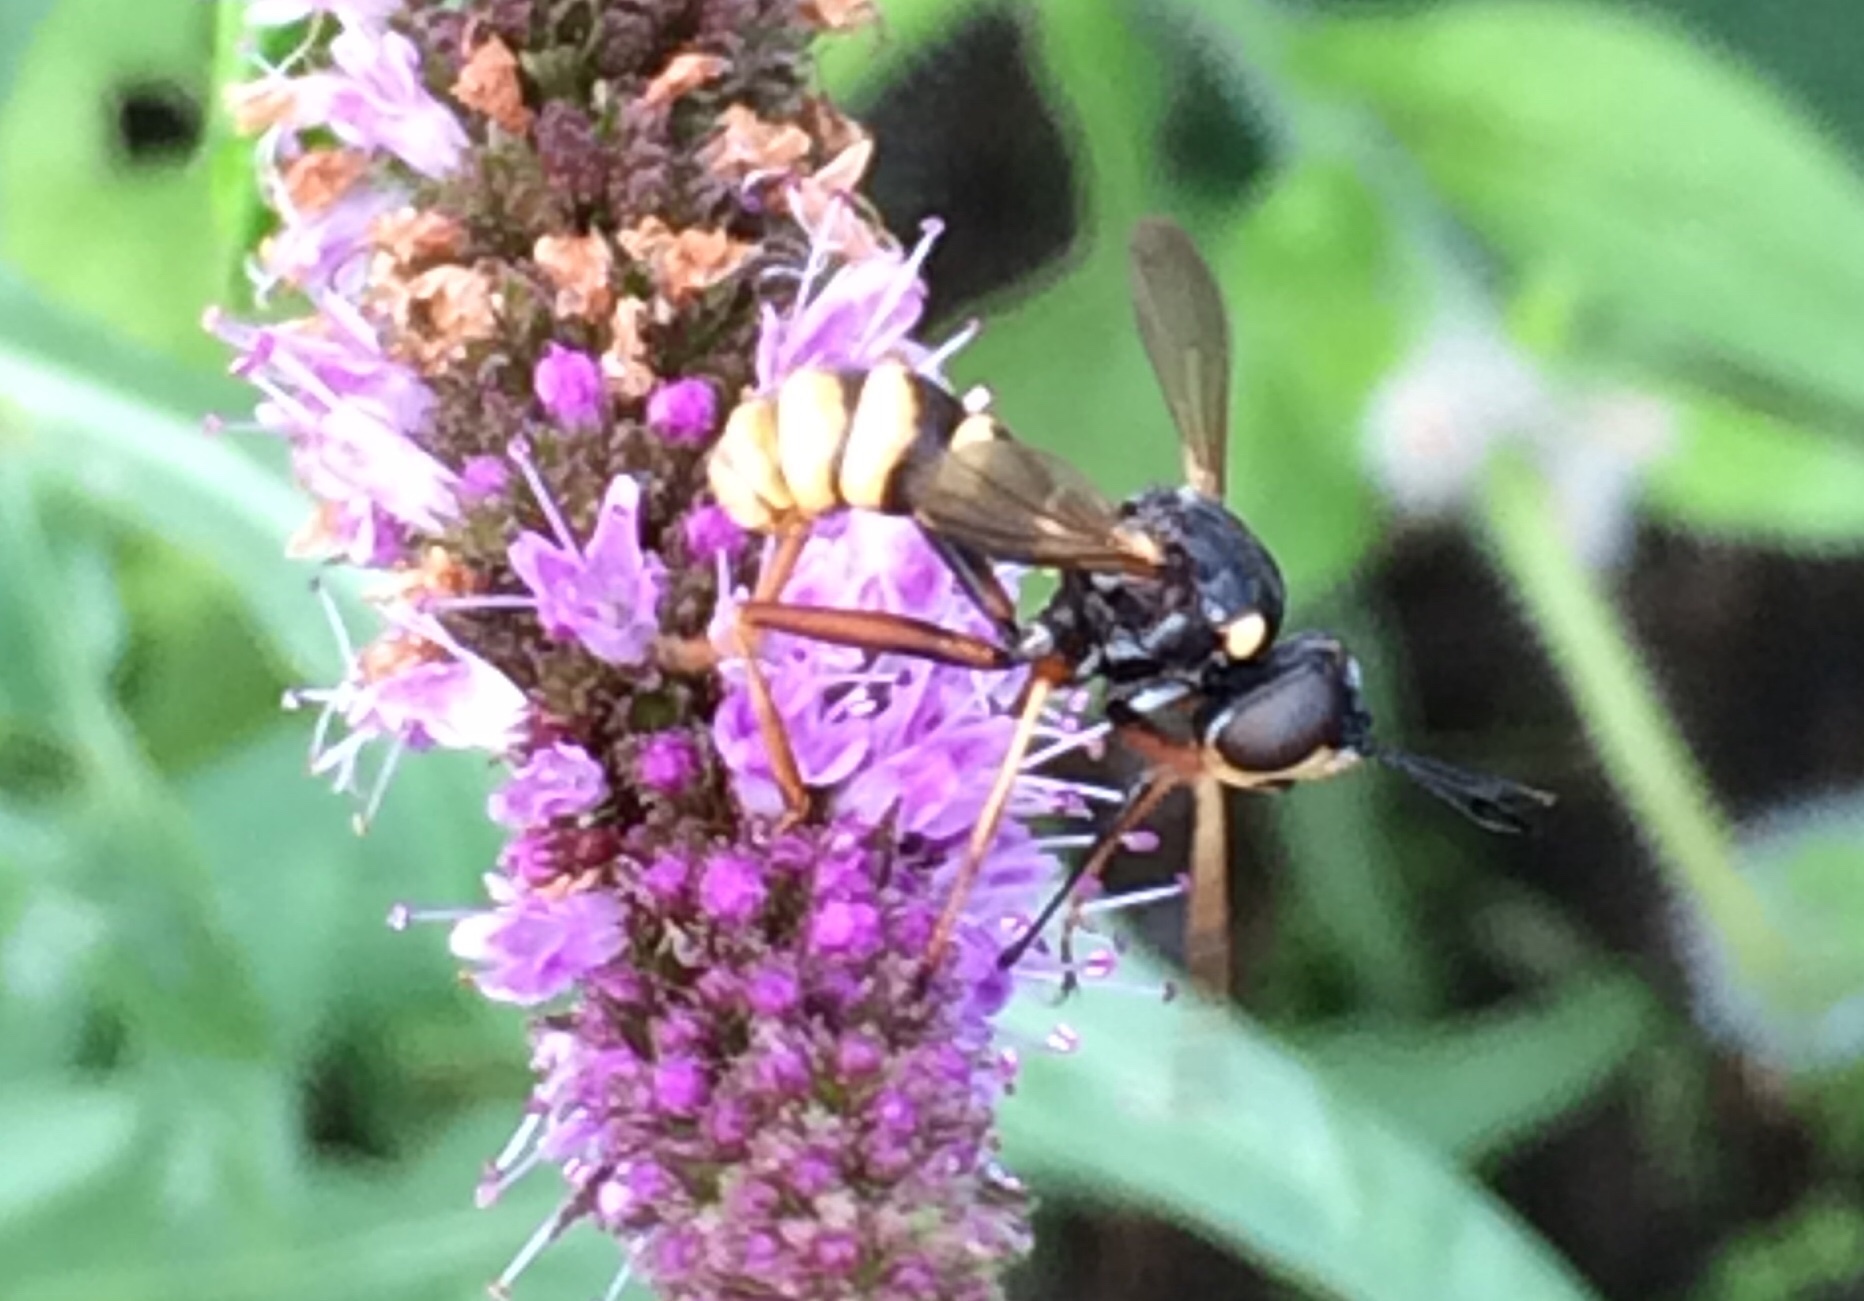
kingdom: Animalia
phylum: Arthropoda
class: Insecta
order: Diptera
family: Conopidae
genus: Conops
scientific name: Conops quadrifasciatus
